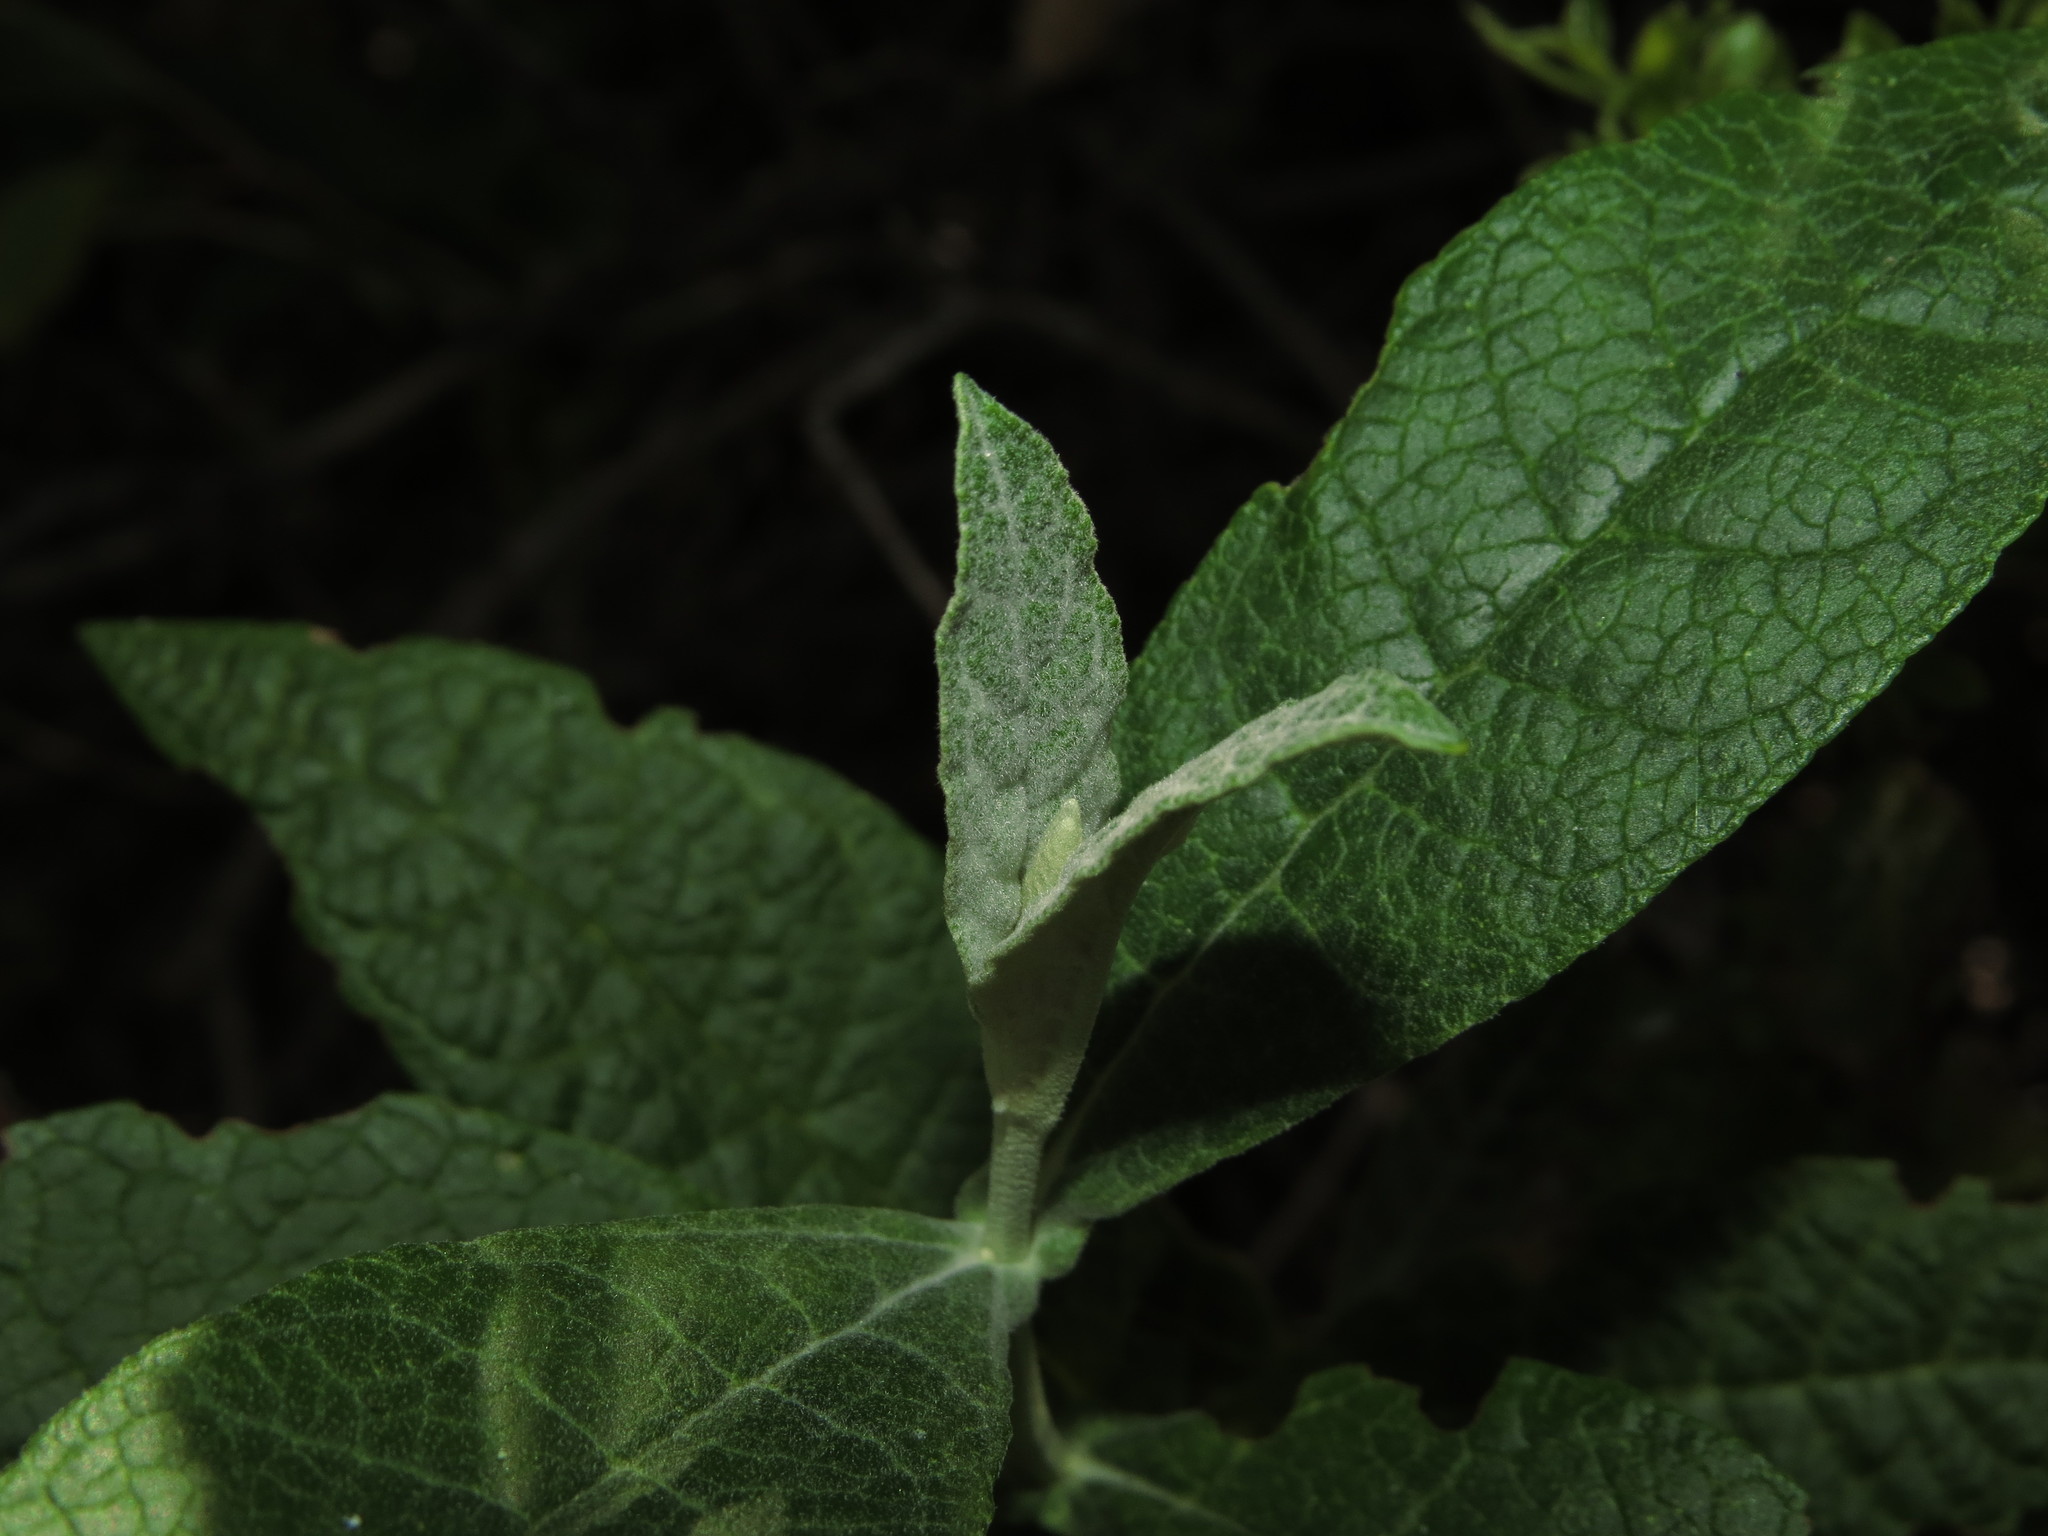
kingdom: Plantae
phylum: Tracheophyta
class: Magnoliopsida
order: Lamiales
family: Scrophulariaceae
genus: Buddleja
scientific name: Buddleja globosa
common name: Orange-ball-tree
